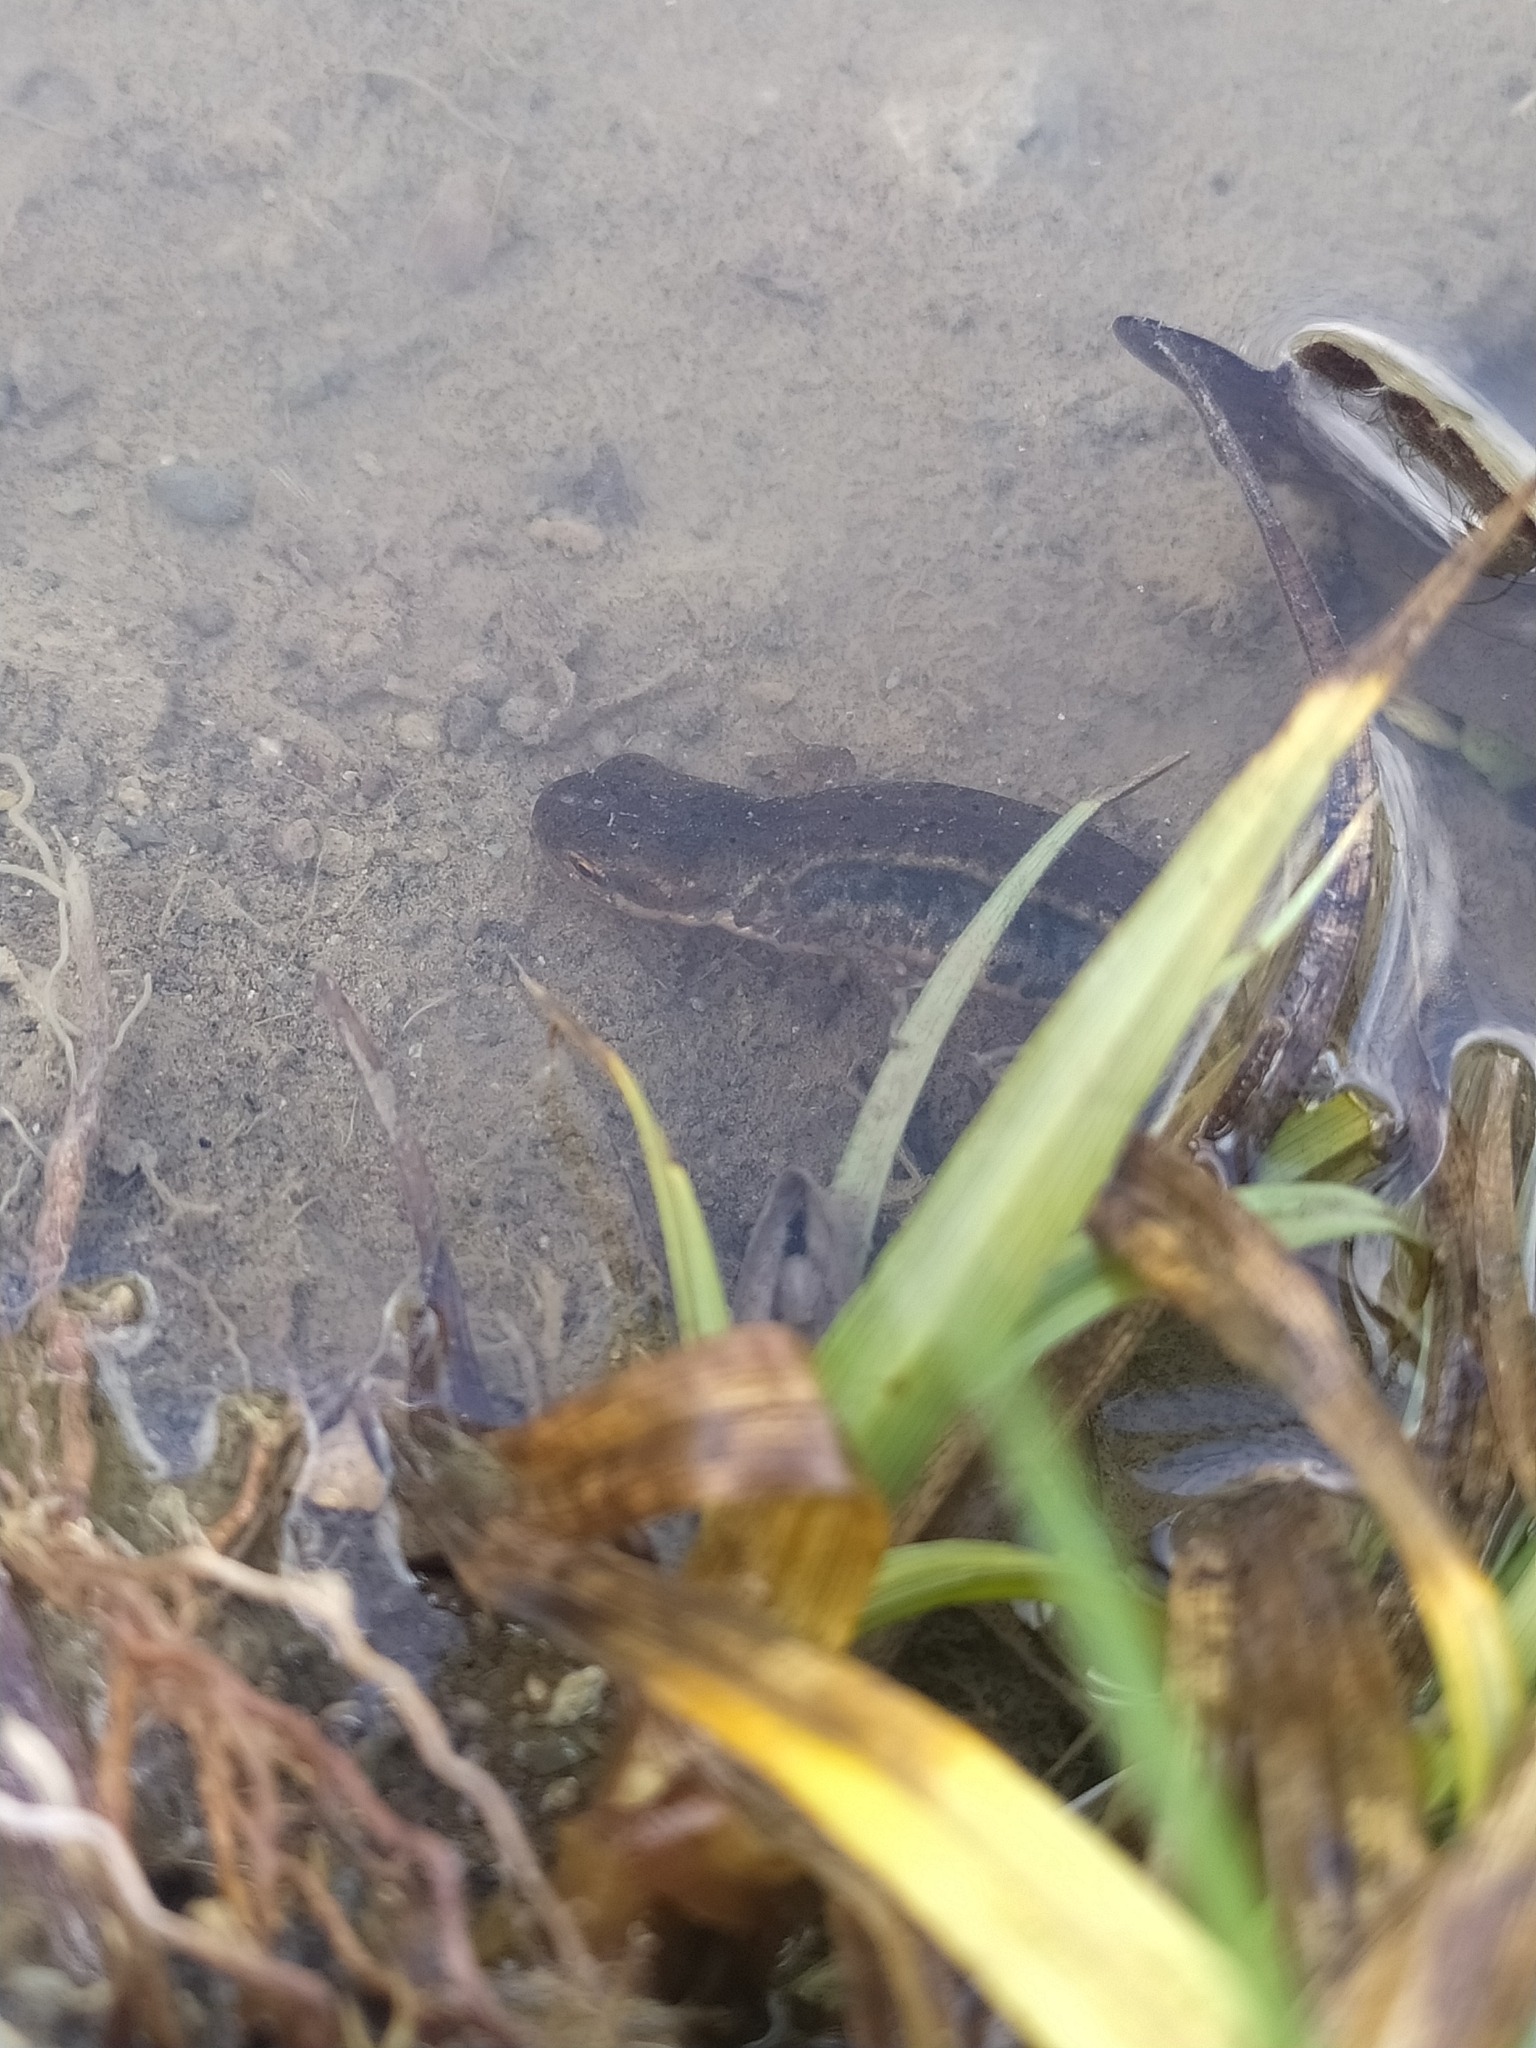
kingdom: Animalia
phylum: Chordata
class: Amphibia
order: Caudata
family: Salamandridae
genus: Lissotriton
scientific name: Lissotriton italicus
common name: Italian newt
